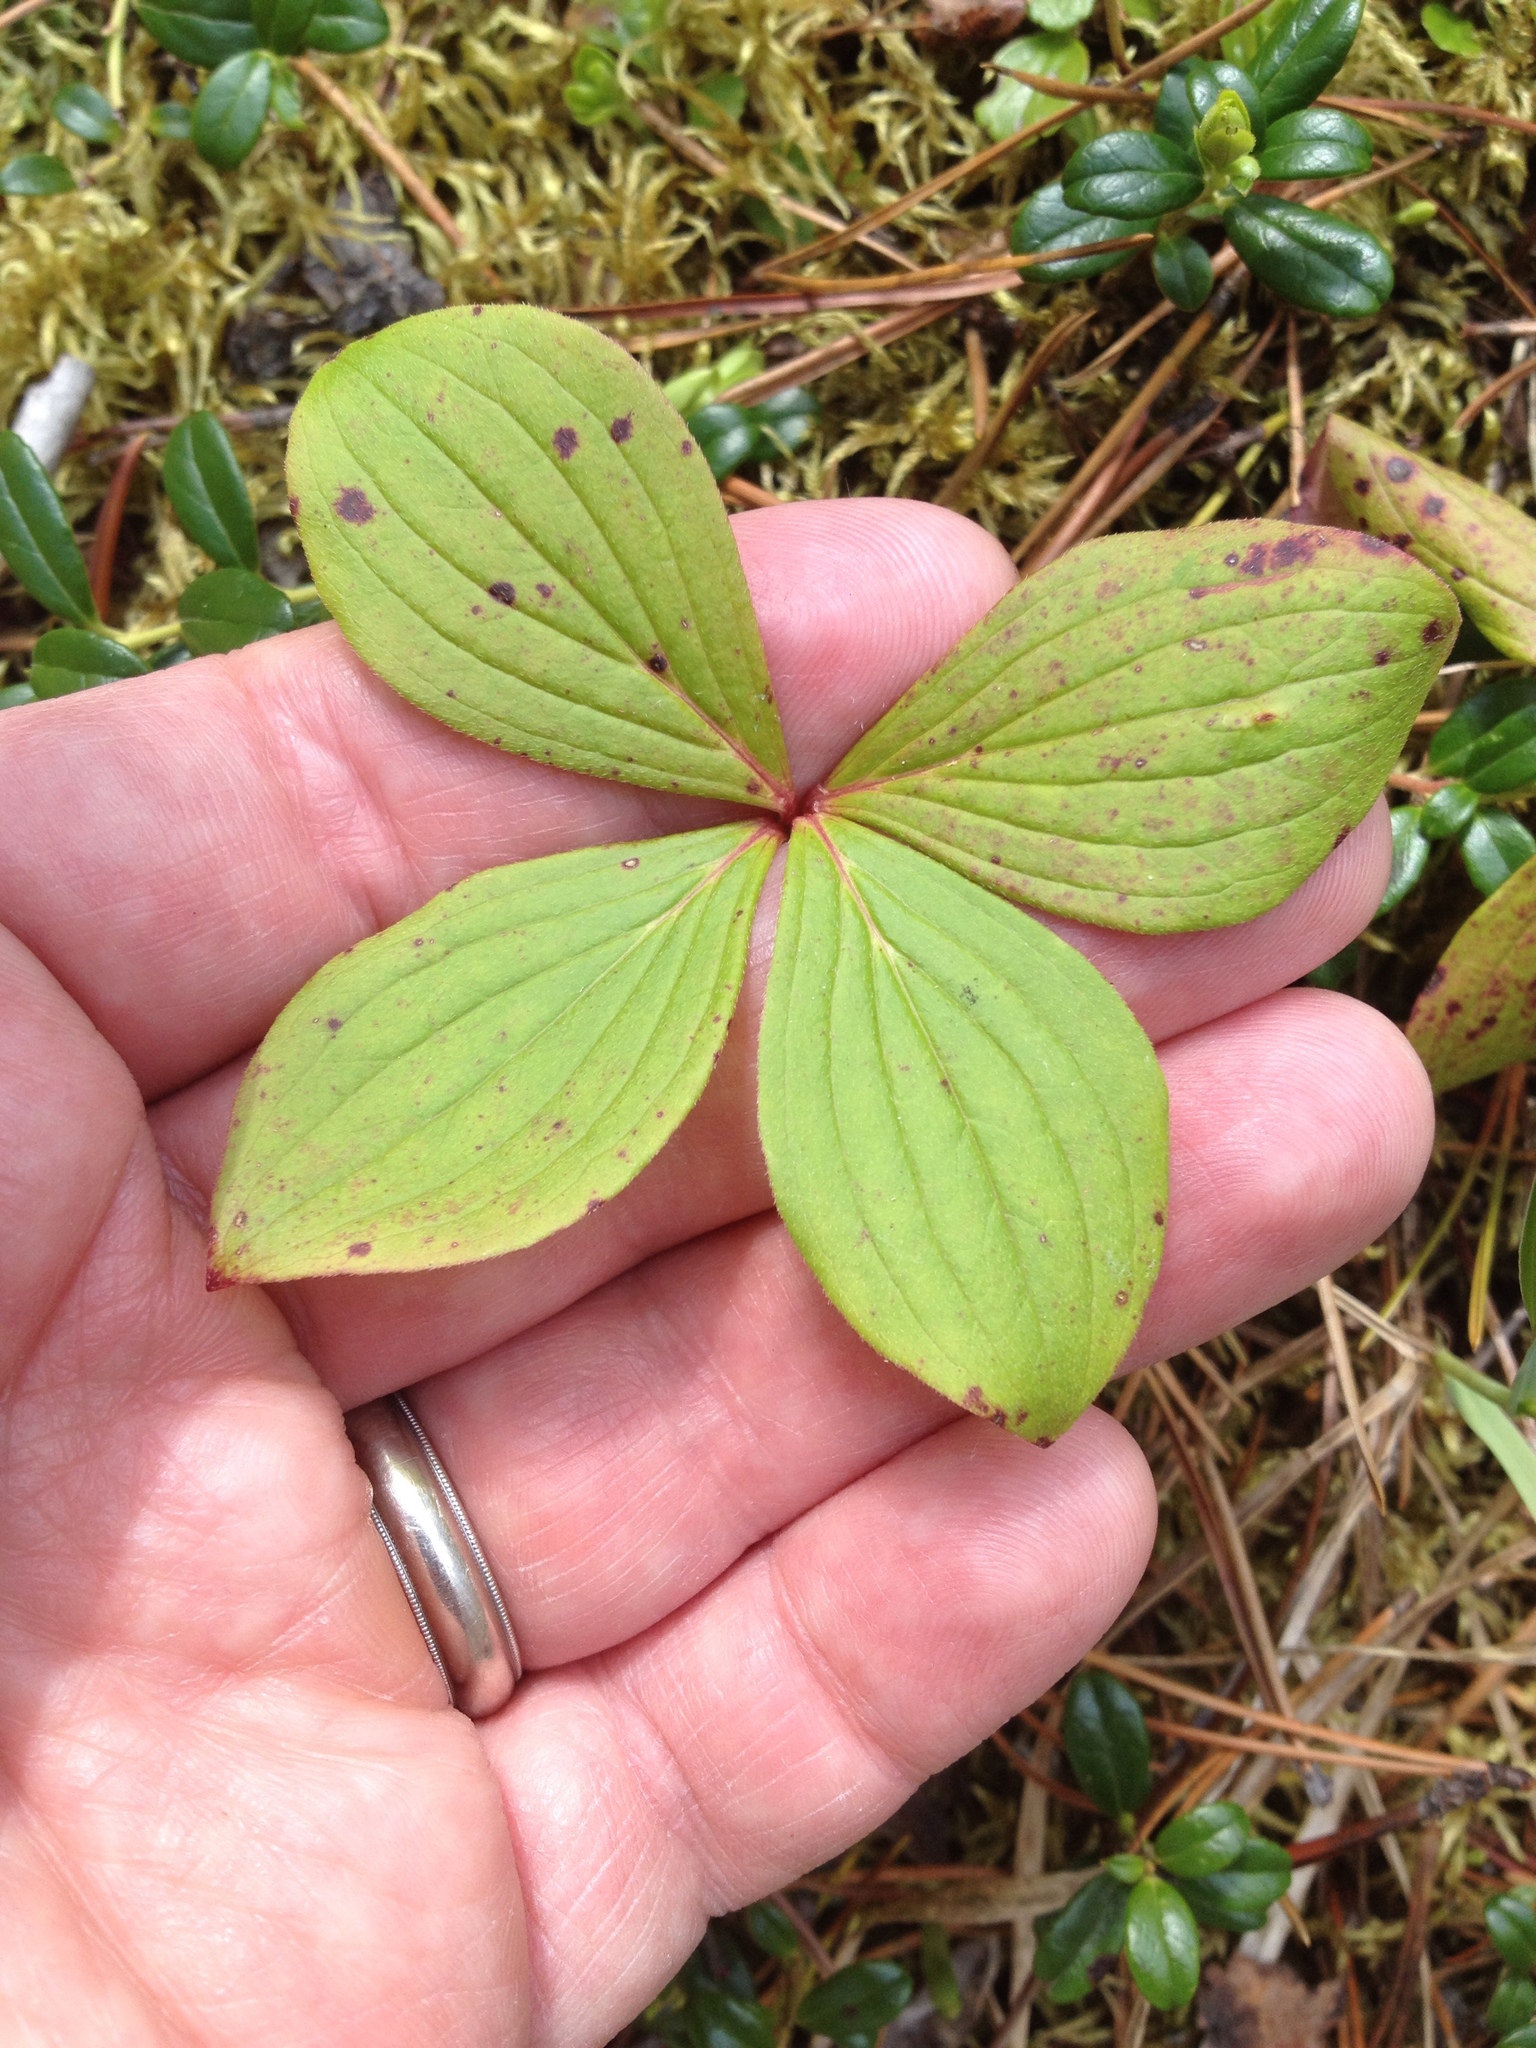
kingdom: Plantae
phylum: Tracheophyta
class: Magnoliopsida
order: Cornales
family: Cornaceae
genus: Cornus
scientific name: Cornus canadensis
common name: Creeping dogwood
